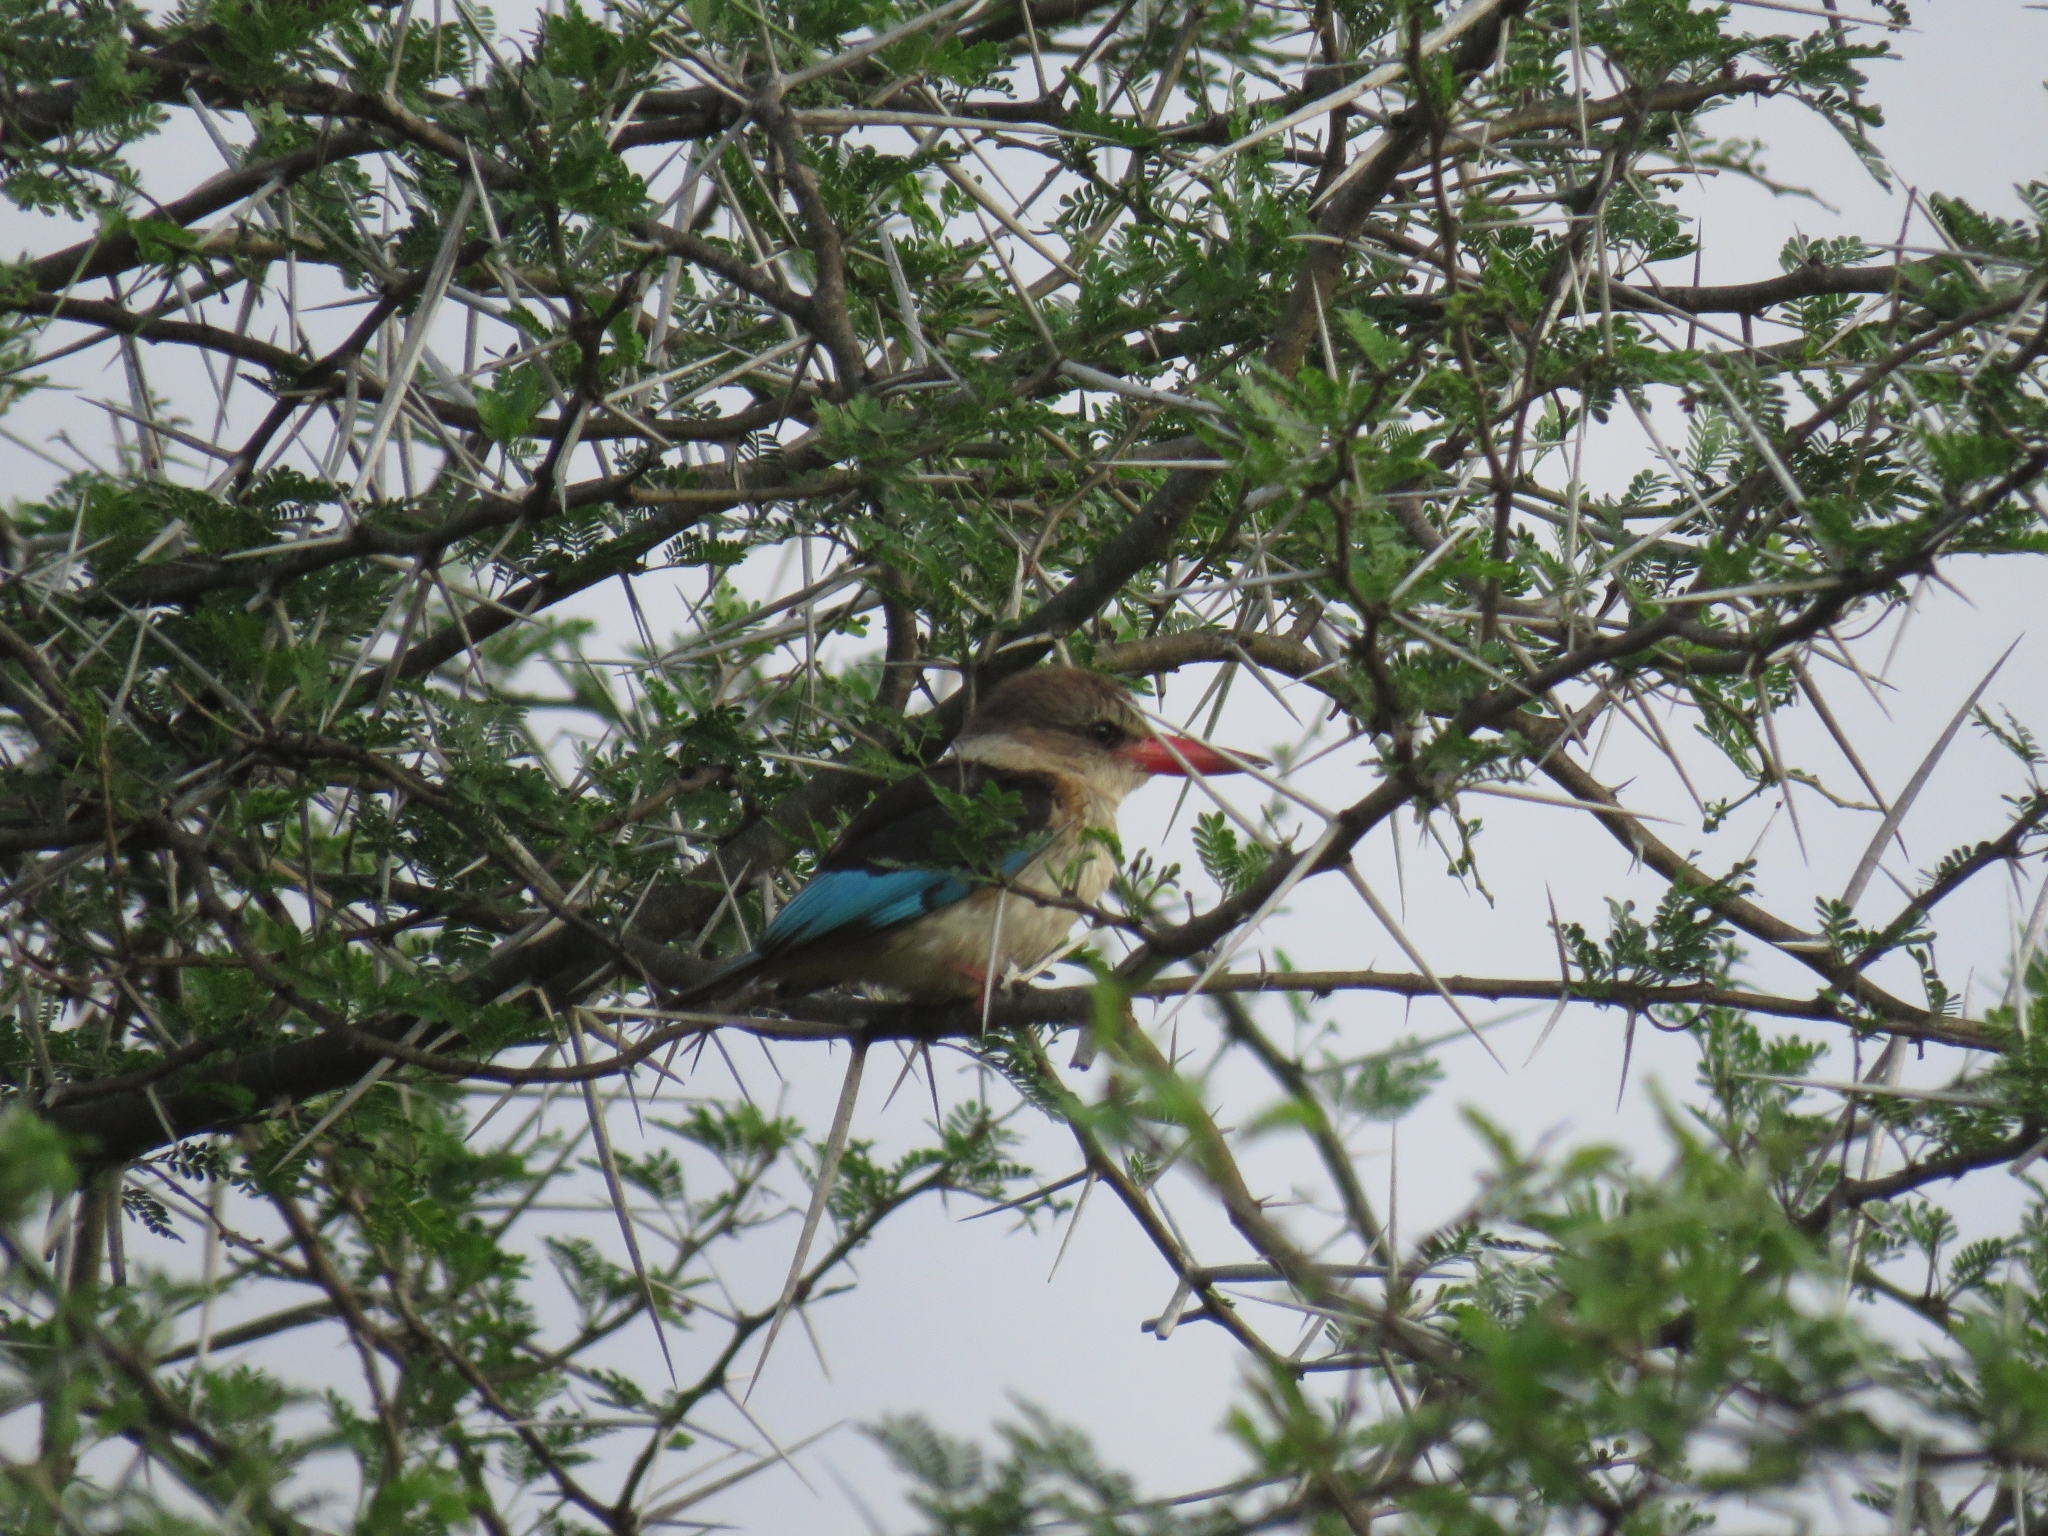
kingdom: Animalia
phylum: Chordata
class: Aves
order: Coraciiformes
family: Alcedinidae
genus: Halcyon
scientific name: Halcyon albiventris
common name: Brown-hooded kingfisher
